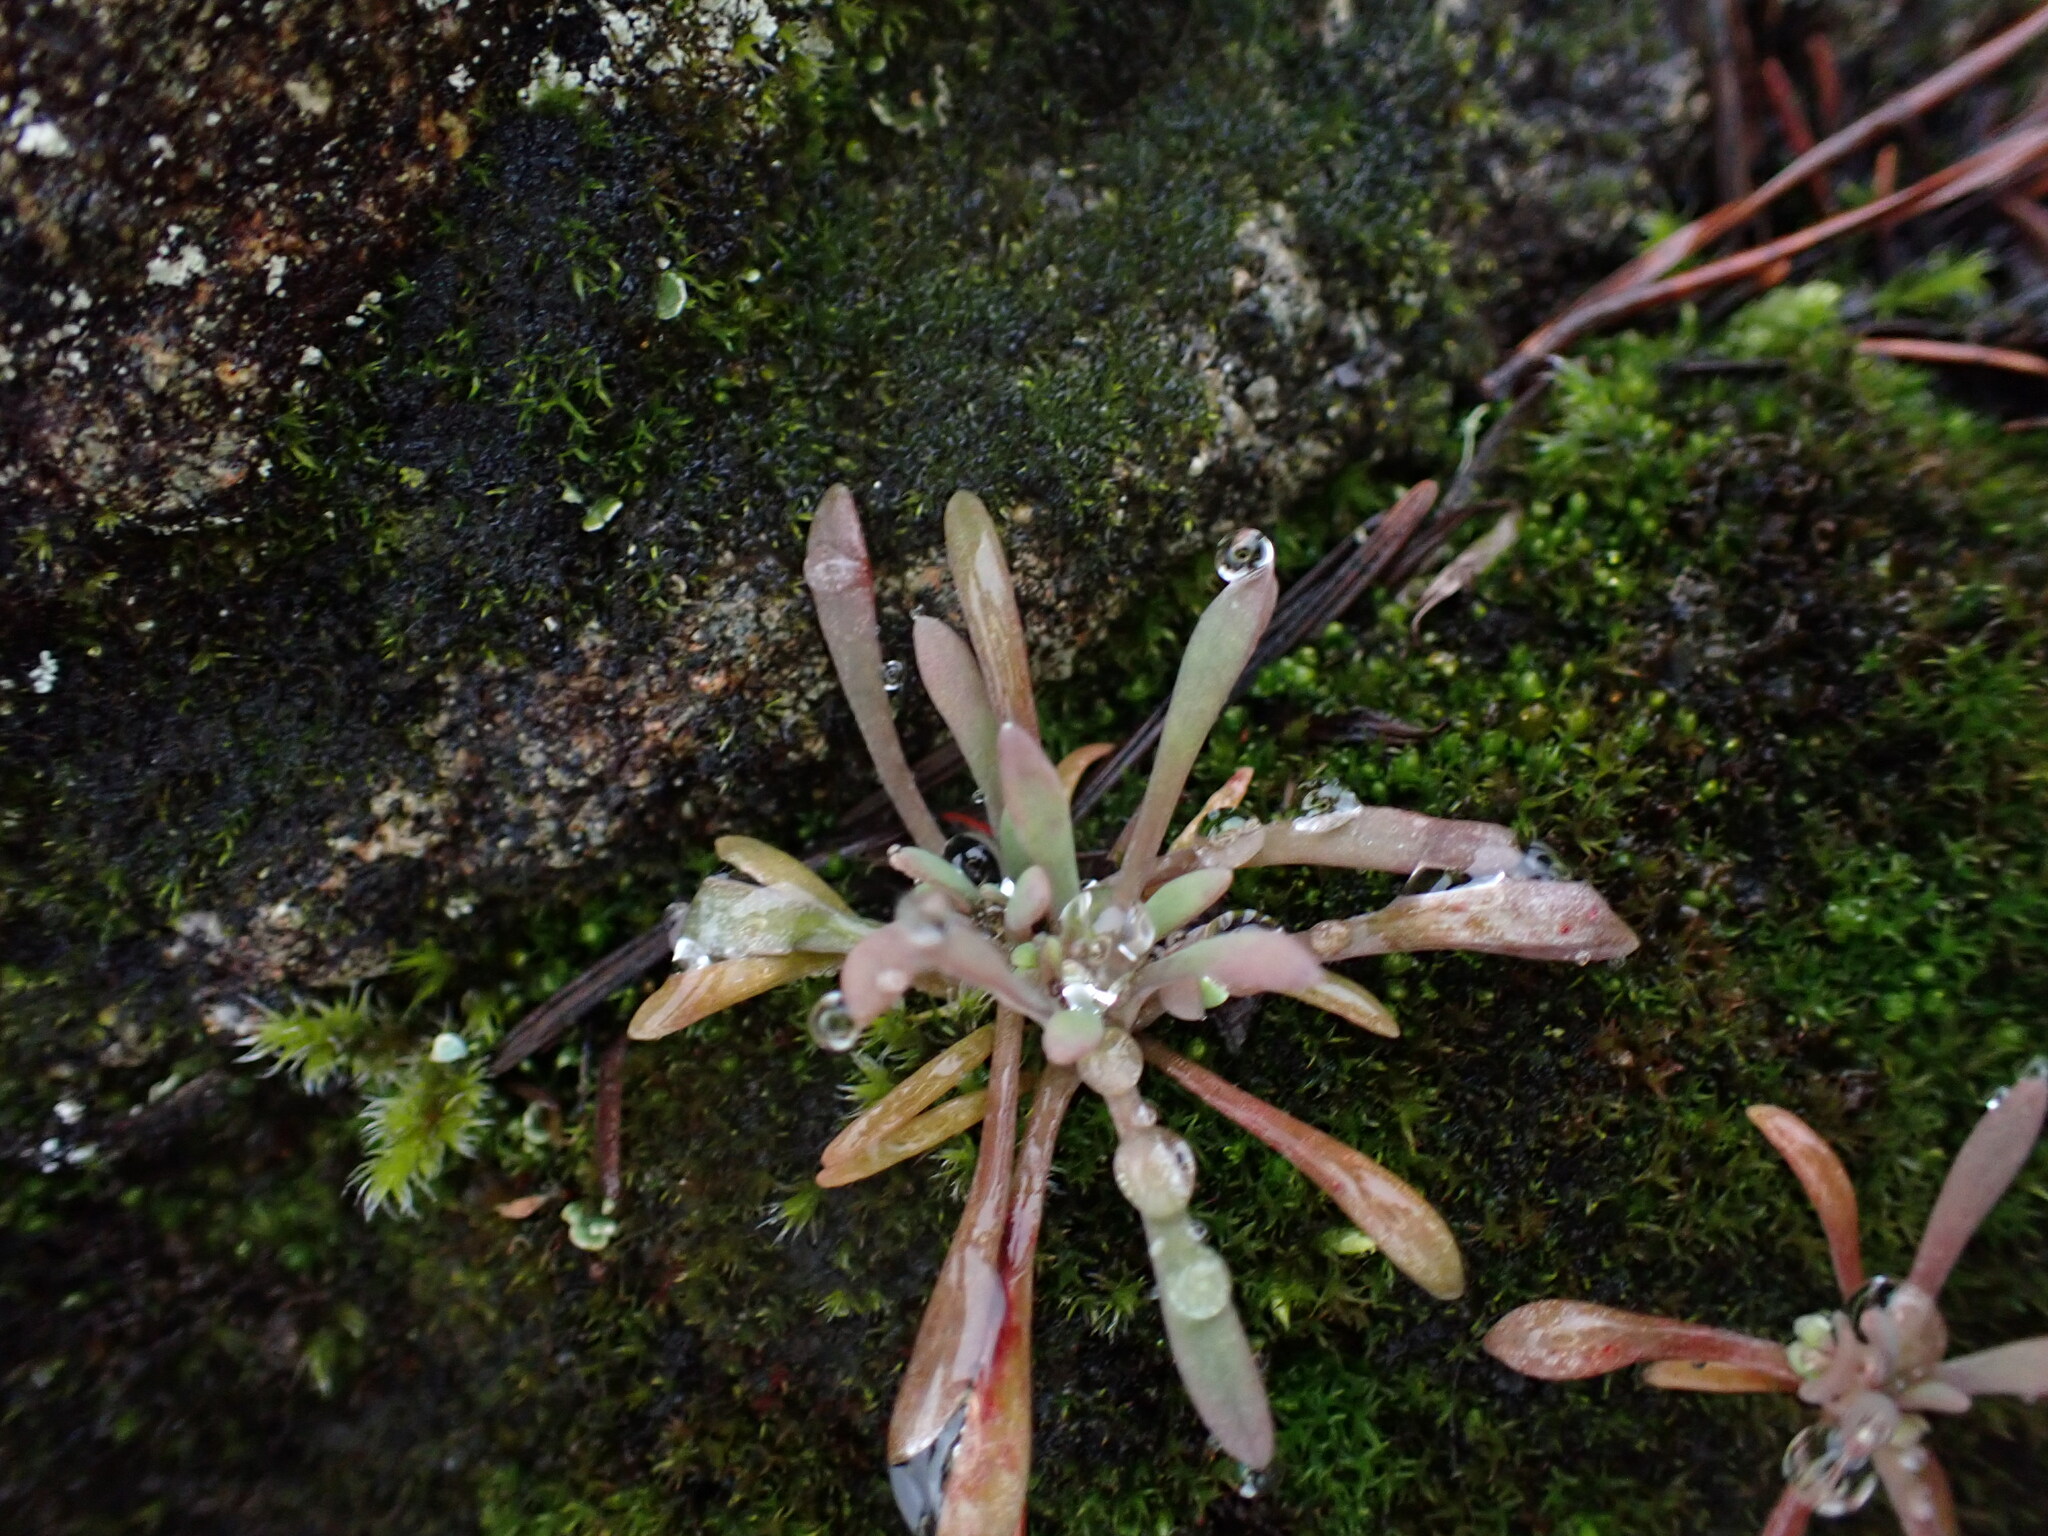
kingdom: Plantae
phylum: Tracheophyta
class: Magnoliopsida
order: Caryophyllales
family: Montiaceae
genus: Claytonia
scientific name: Claytonia exigua
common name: Pale spring beauty
